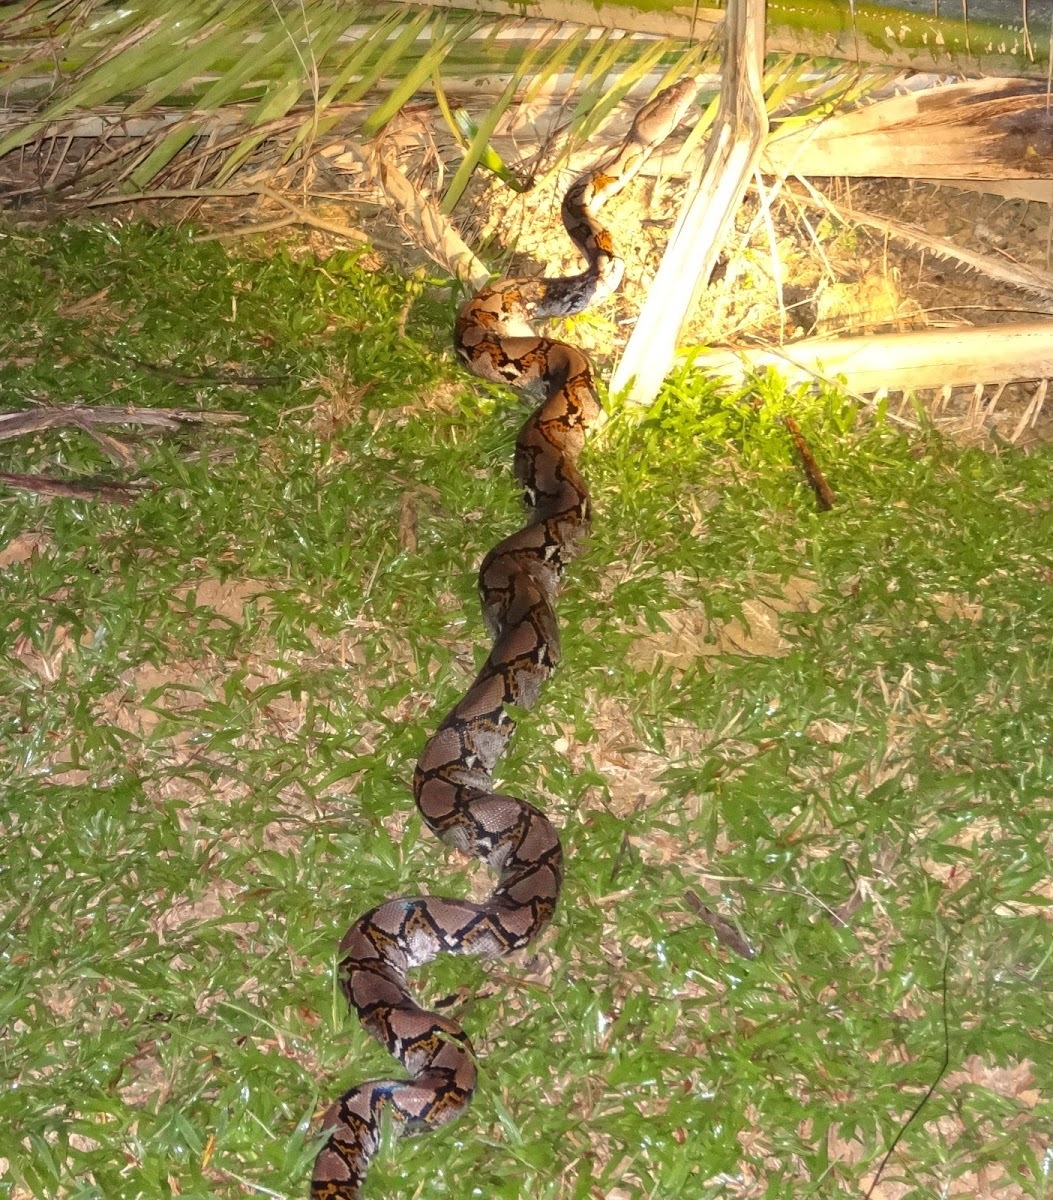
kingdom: Animalia
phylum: Chordata
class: Squamata
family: Pythonidae
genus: Malayopython
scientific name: Malayopython reticulatus
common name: Reticulated python
